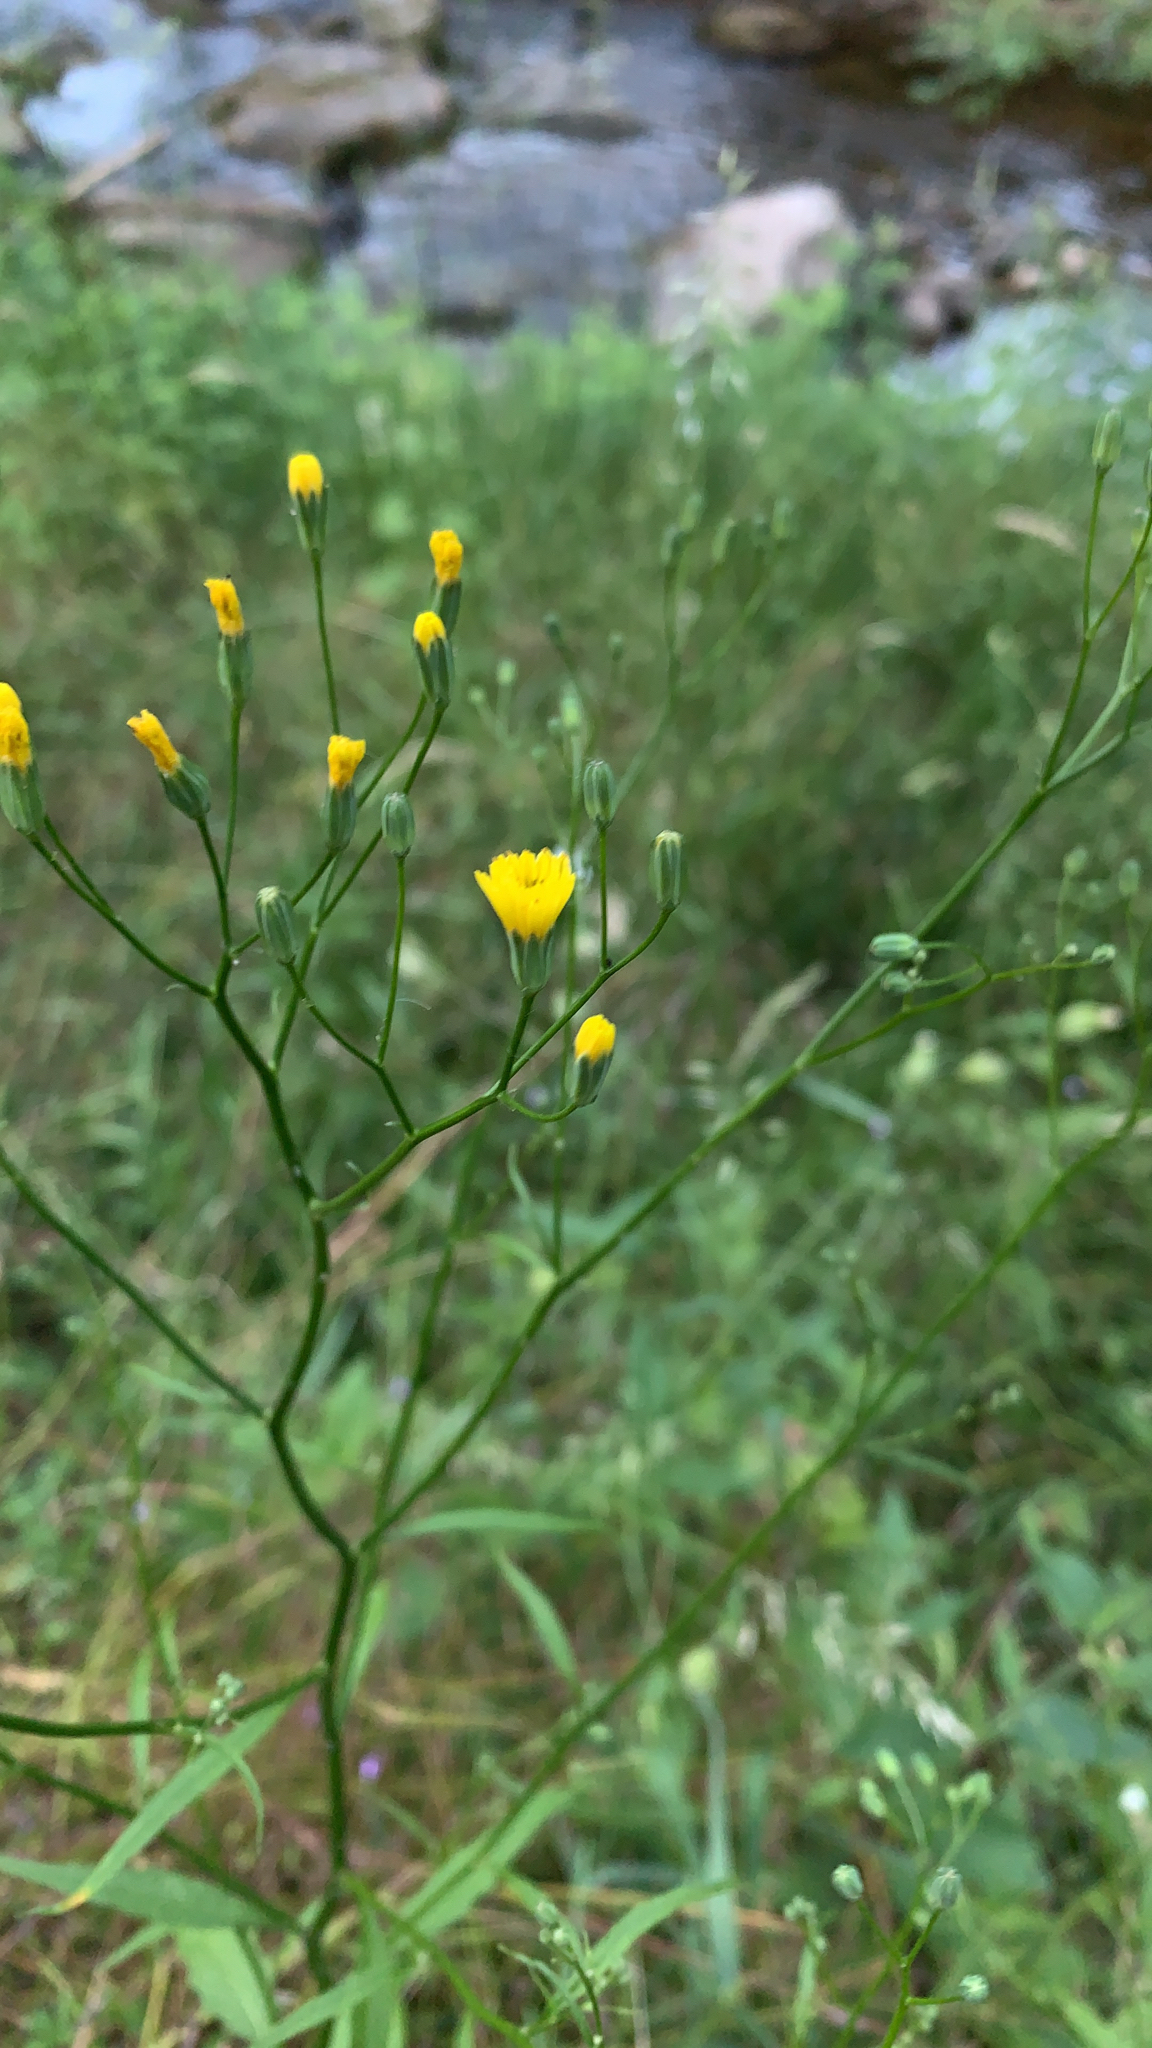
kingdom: Plantae
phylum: Tracheophyta
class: Magnoliopsida
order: Asterales
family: Asteraceae
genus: Lapsana
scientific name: Lapsana communis
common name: Nipplewort
